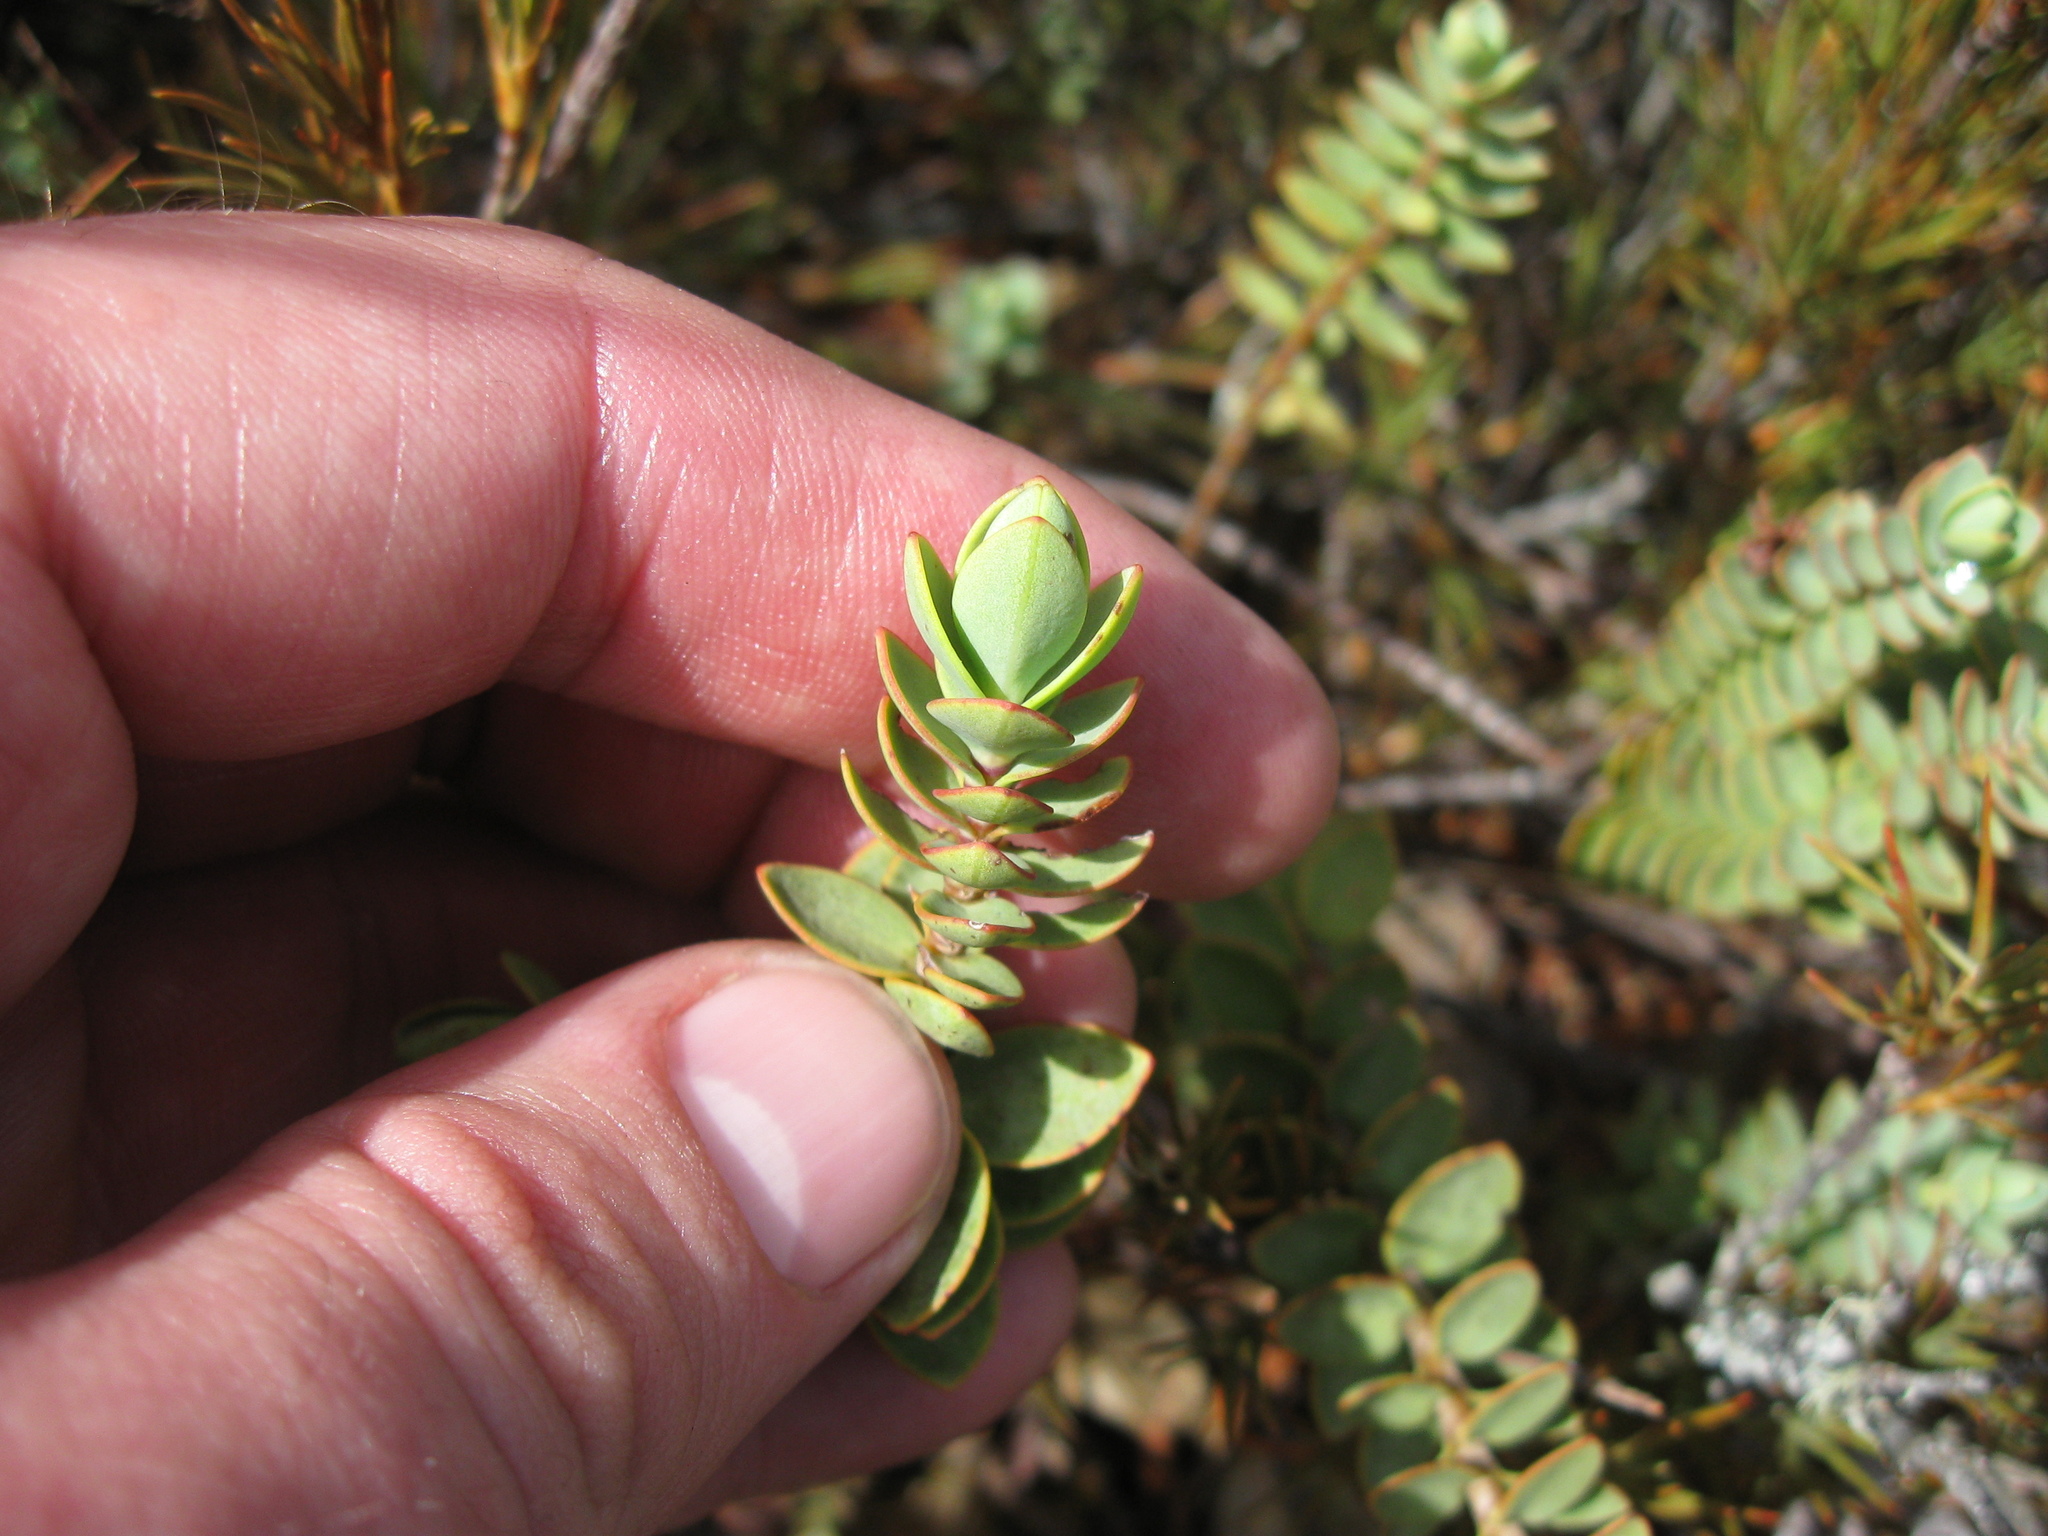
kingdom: Plantae
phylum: Tracheophyta
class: Magnoliopsida
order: Lamiales
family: Plantaginaceae
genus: Veronica
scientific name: Veronica pinguifolia
